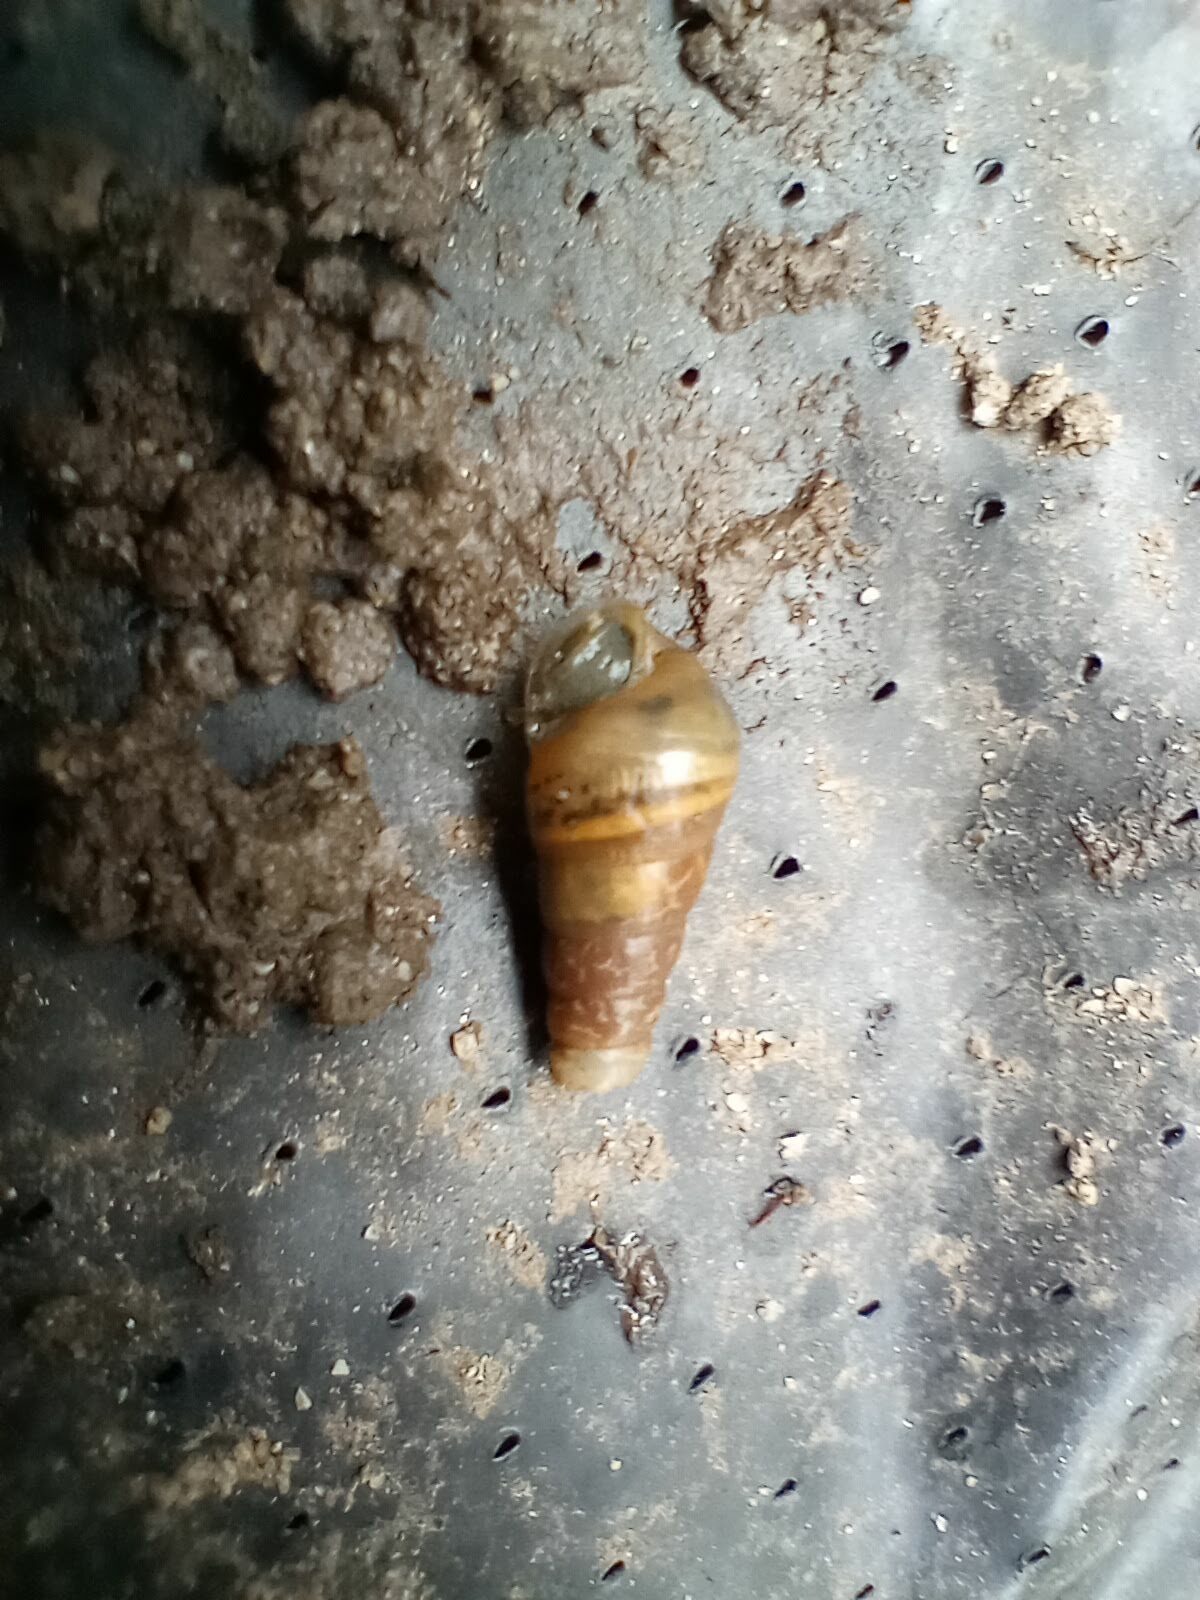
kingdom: Animalia
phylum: Mollusca
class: Gastropoda
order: Stylommatophora
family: Achatinidae
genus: Rumina
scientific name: Rumina decollata
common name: Decollate snail
